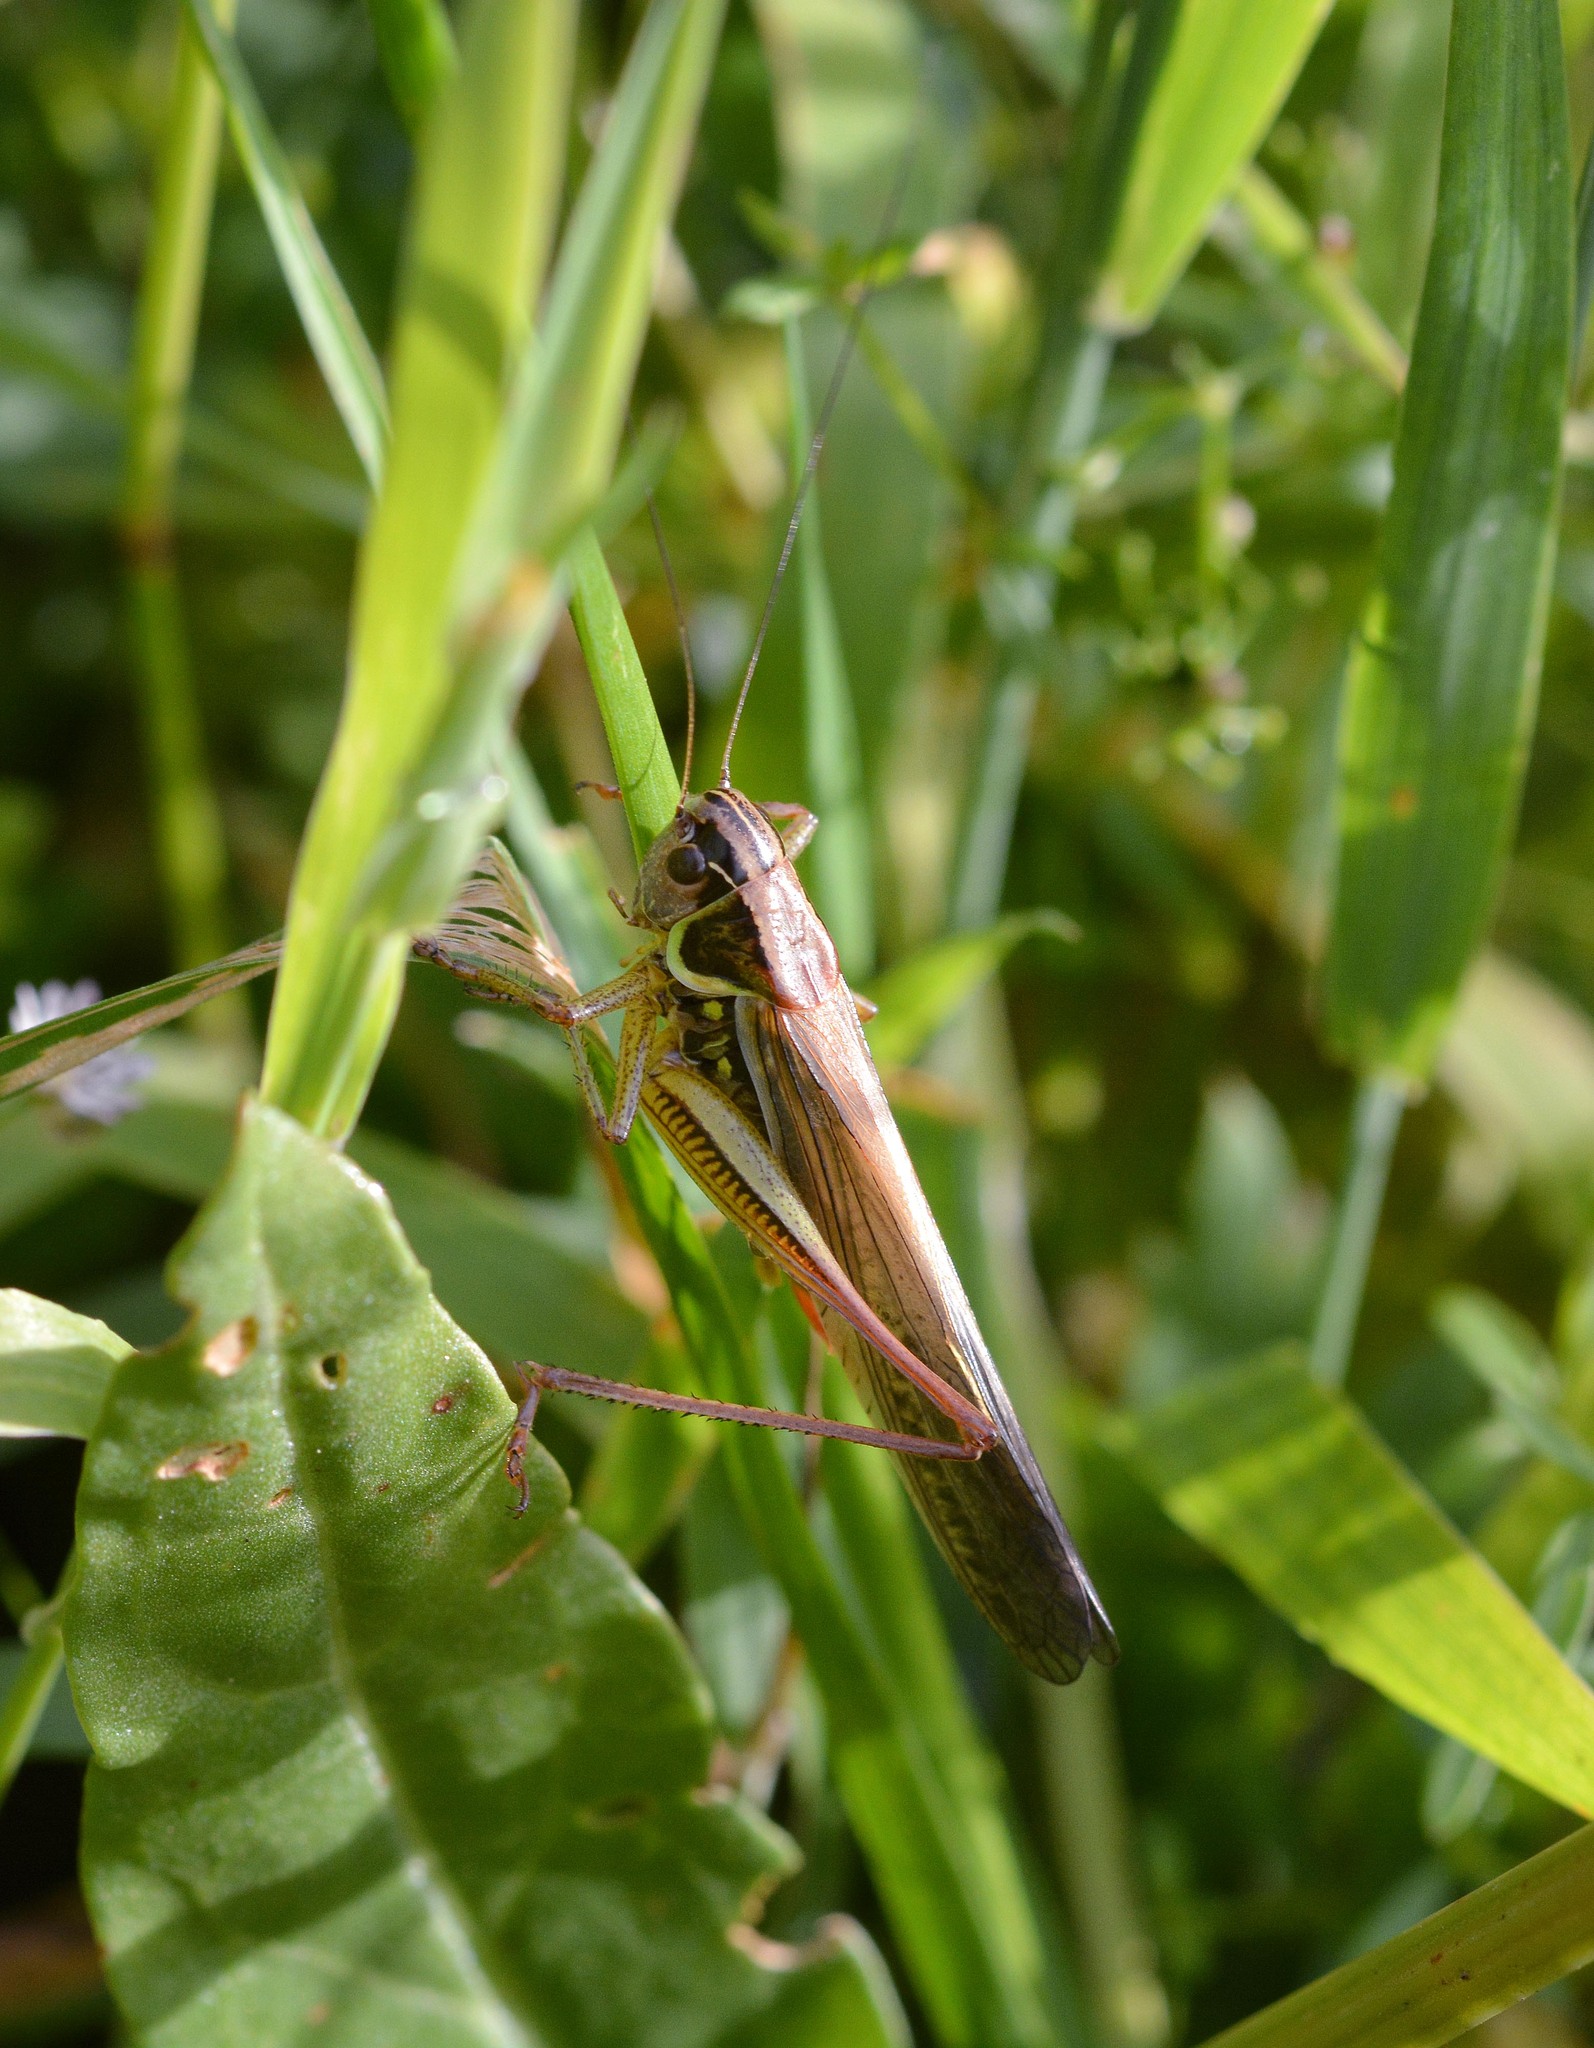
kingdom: Animalia
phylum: Arthropoda
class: Insecta
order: Orthoptera
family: Tettigoniidae
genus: Roeseliana
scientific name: Roeseliana roeselii
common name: Roesel's bush cricket
